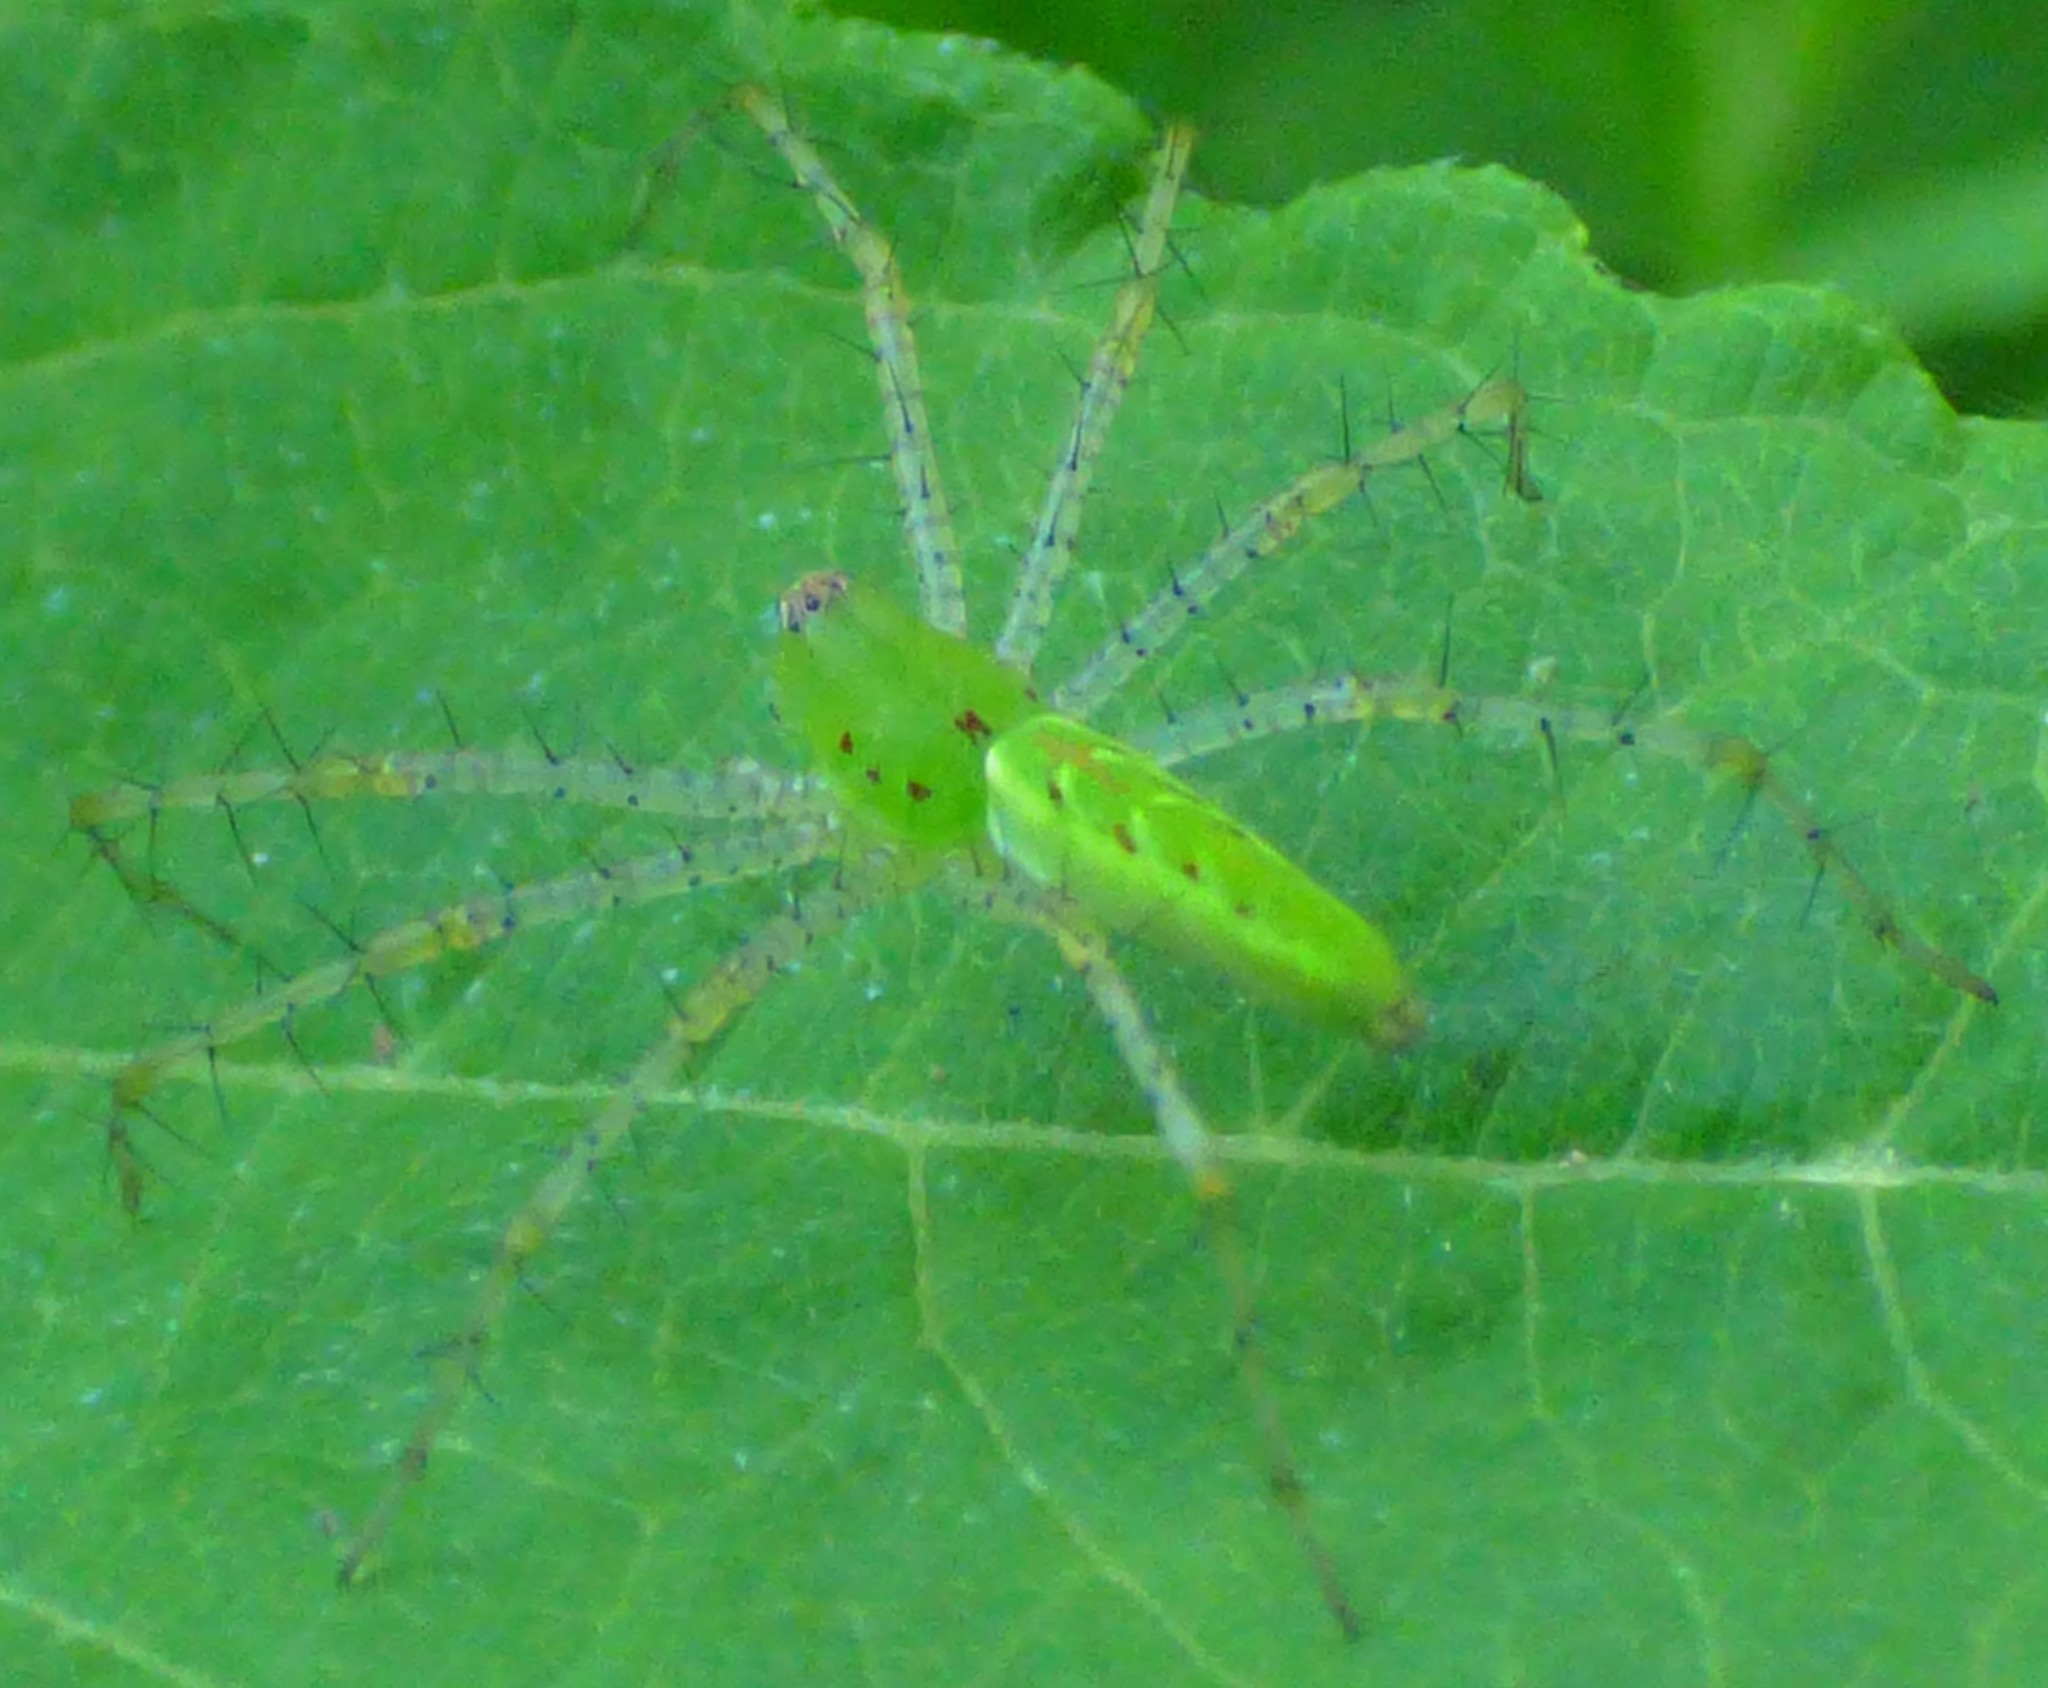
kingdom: Animalia
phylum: Arthropoda
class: Arachnida
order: Araneae
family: Oxyopidae
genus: Peucetia
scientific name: Peucetia viridans
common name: Lynx spiders
